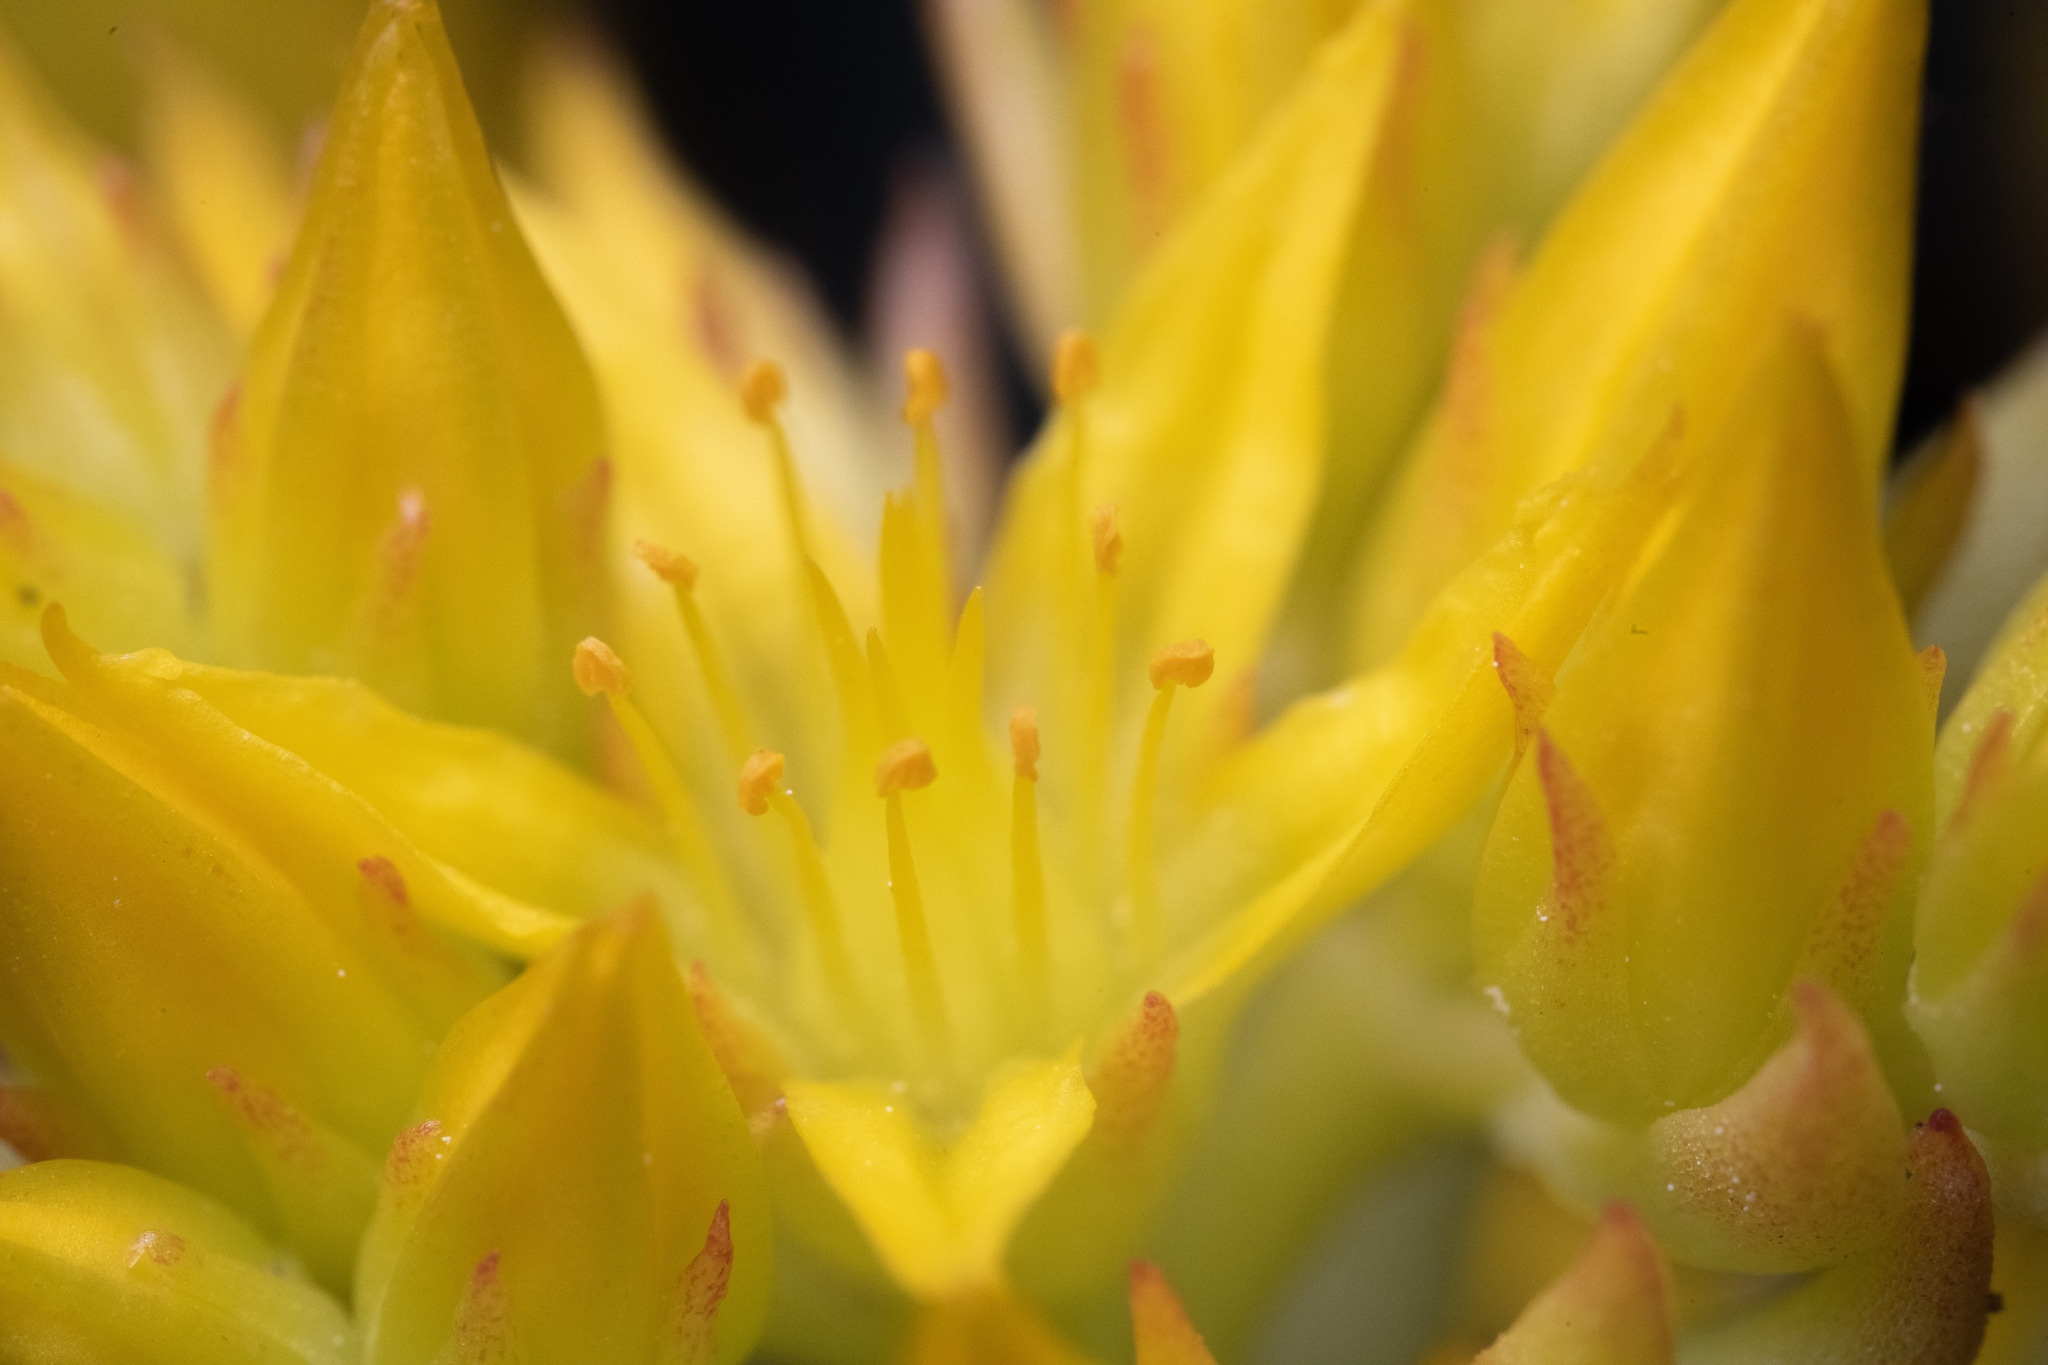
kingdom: Plantae
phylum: Tracheophyta
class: Magnoliopsida
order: Saxifragales
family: Crassulaceae
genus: Sedum
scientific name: Sedum lanceolatum
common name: Common stonecrop
